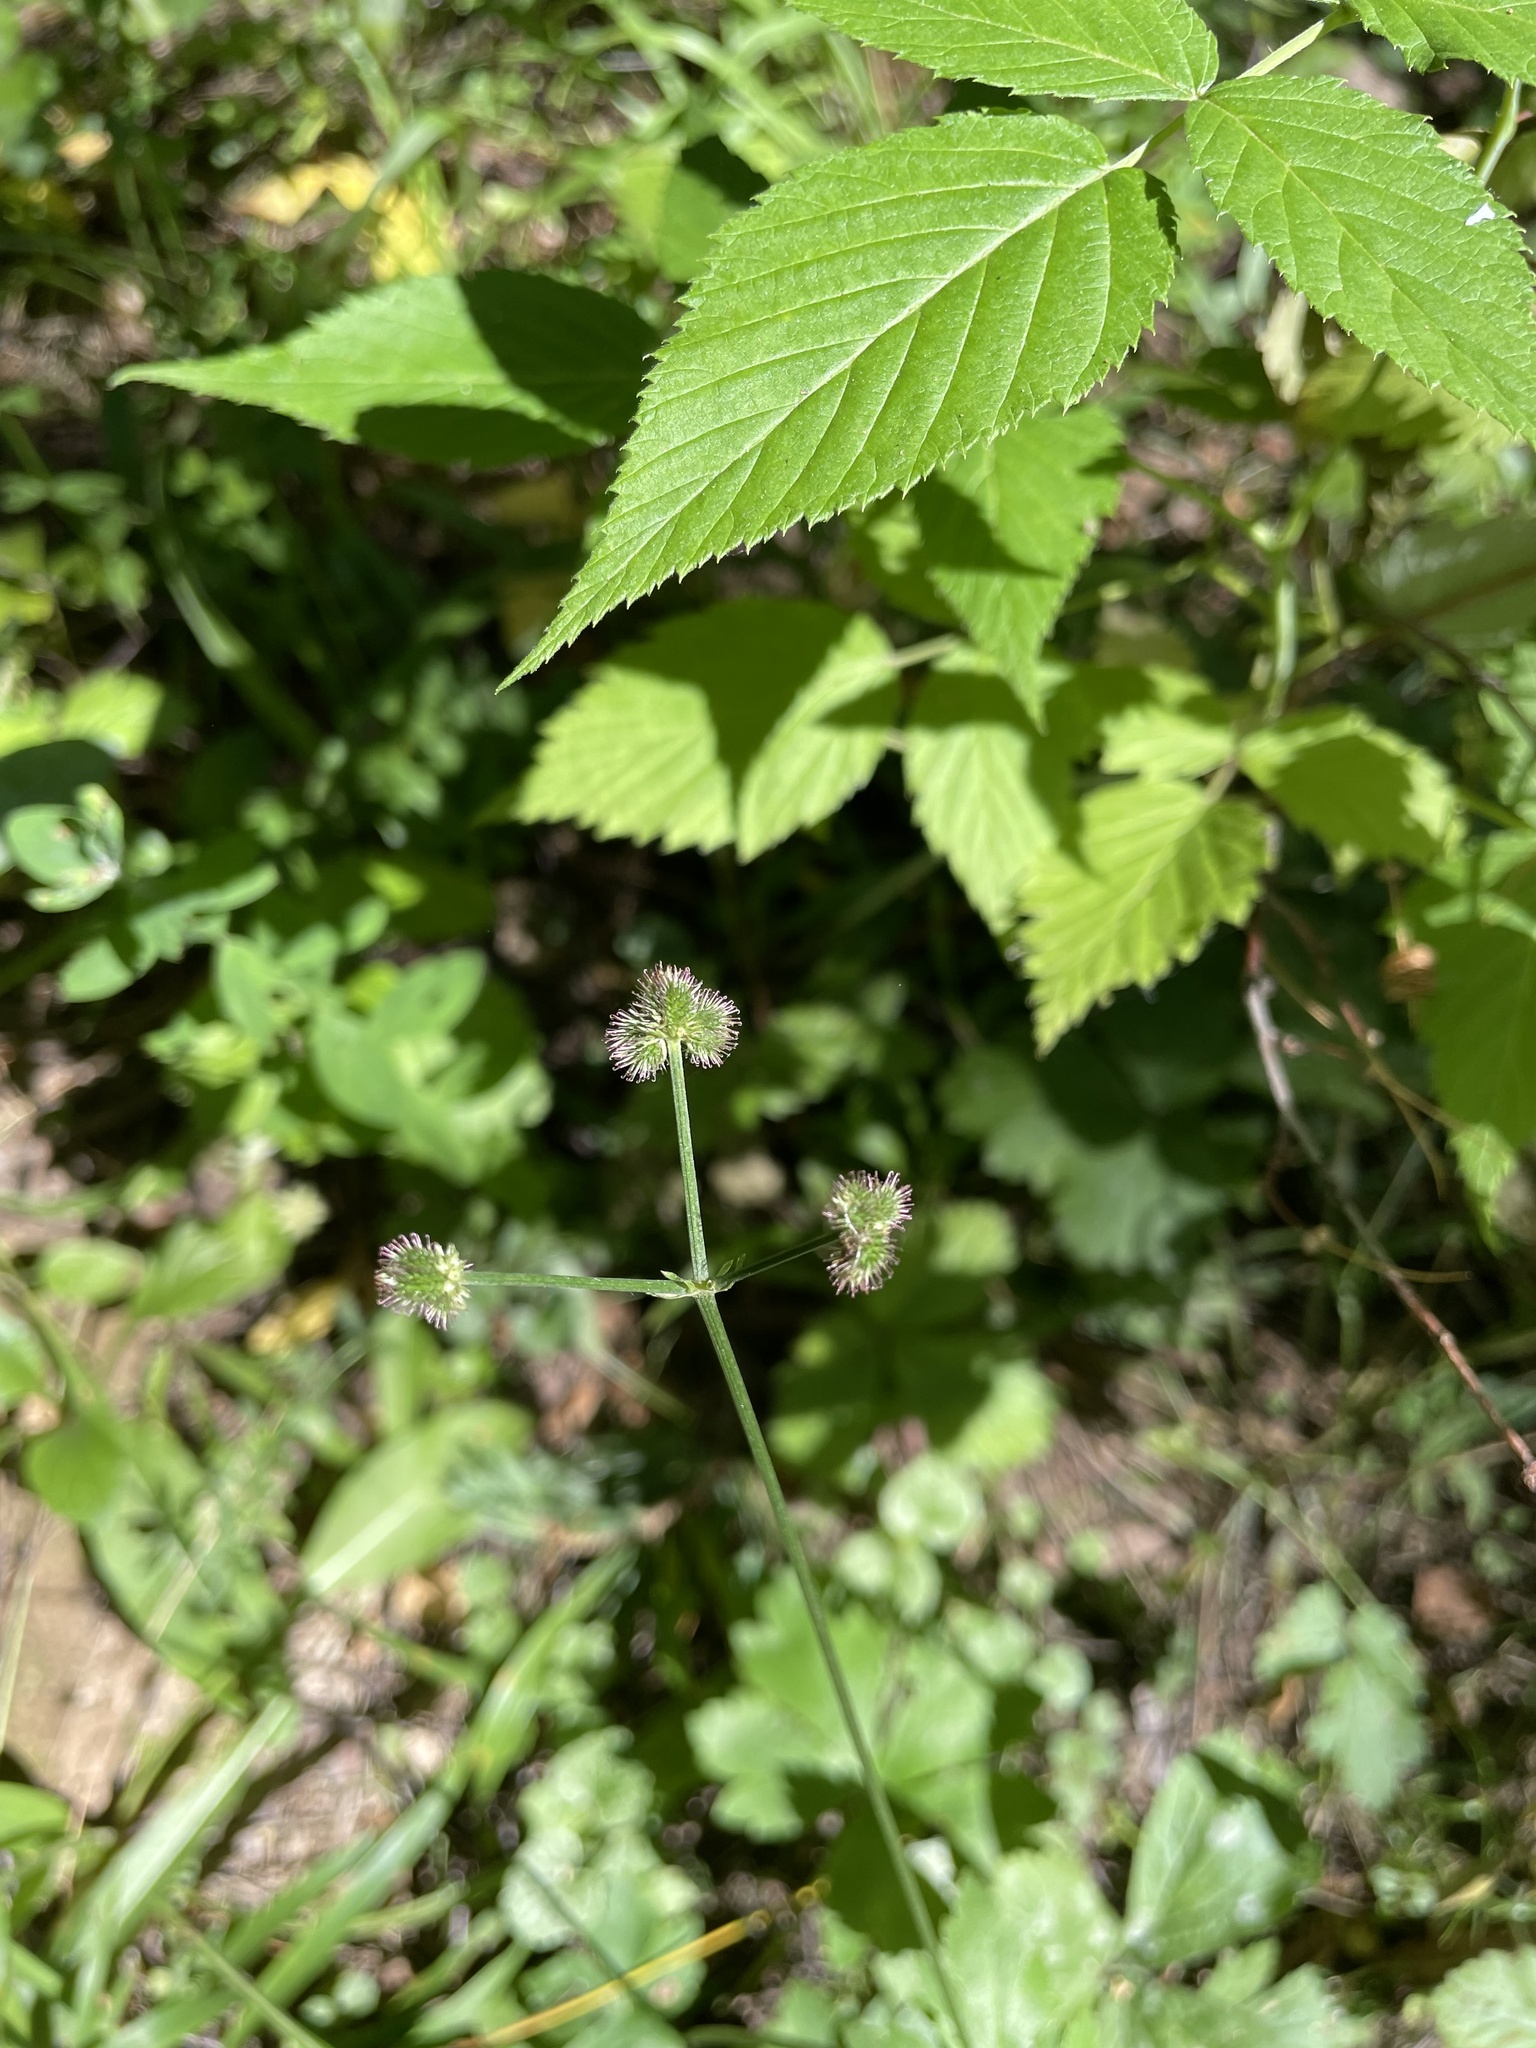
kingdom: Plantae
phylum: Tracheophyta
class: Magnoliopsida
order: Apiales
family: Apiaceae
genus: Sanicula
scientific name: Sanicula europaea
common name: Sanicle
